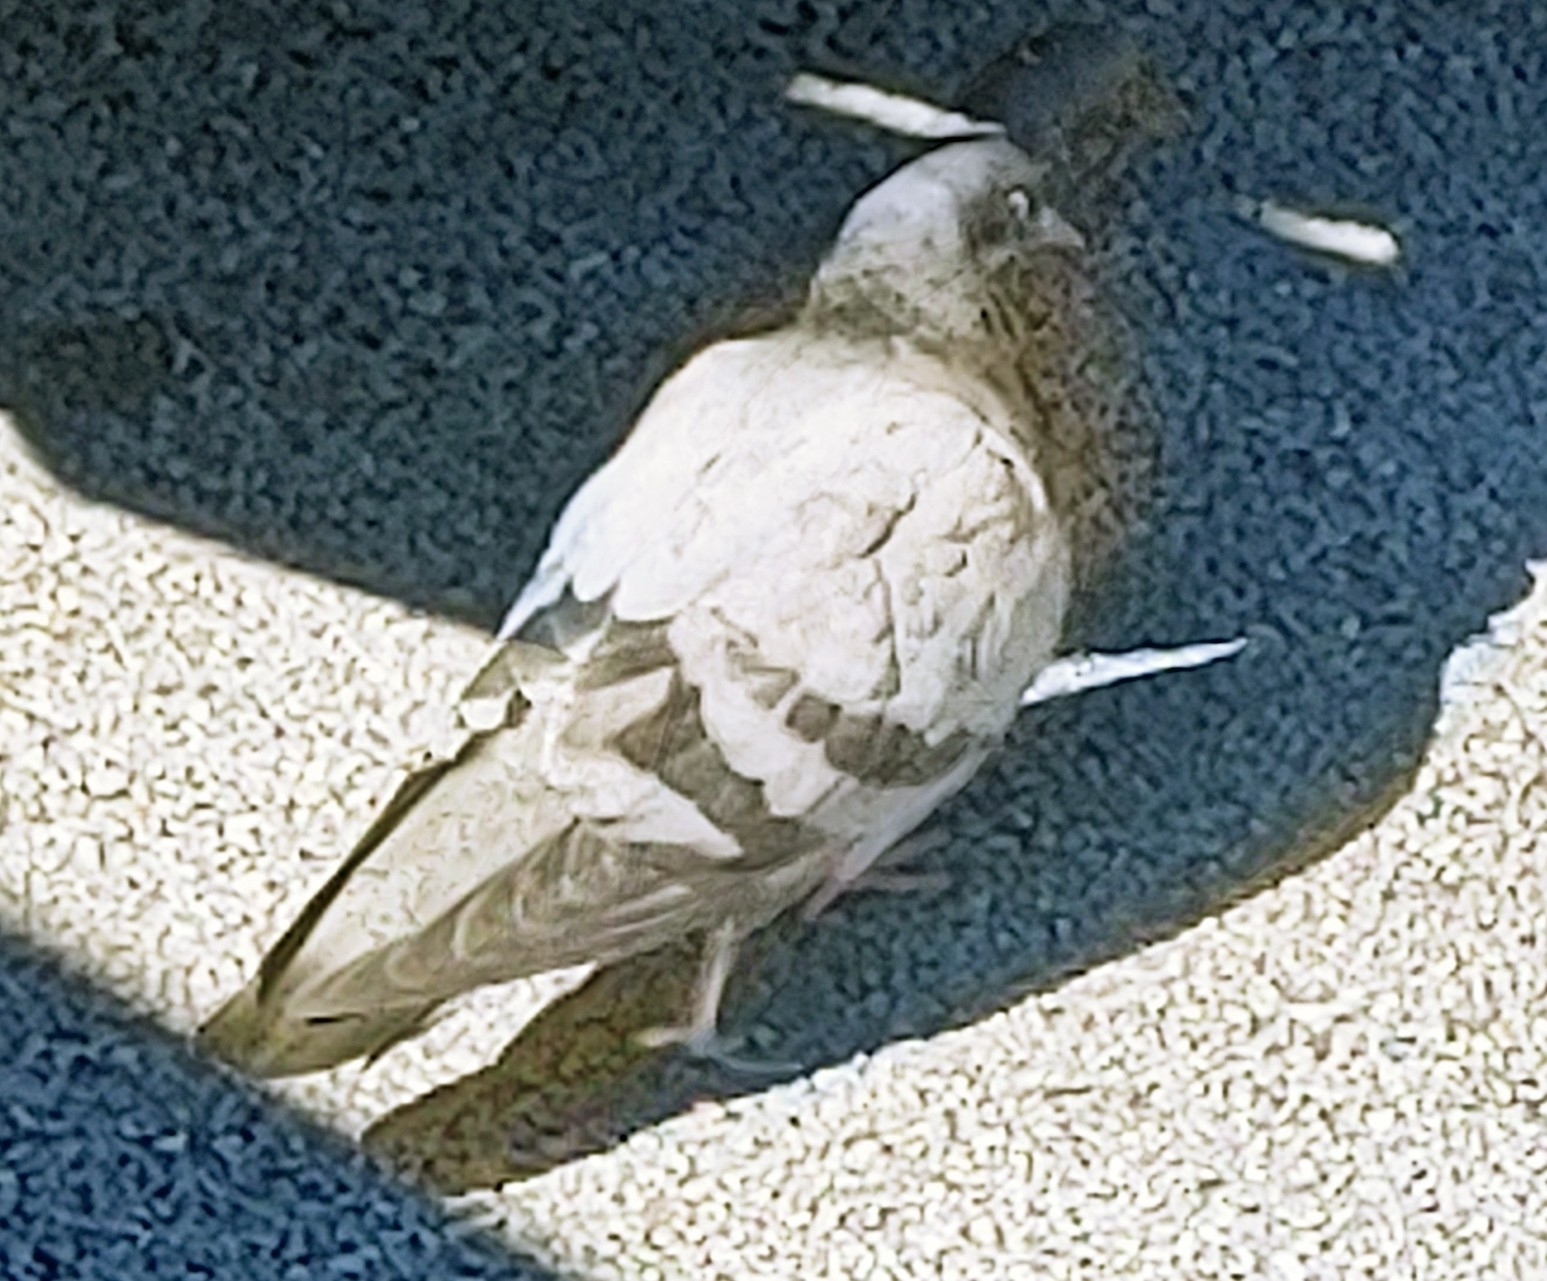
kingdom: Animalia
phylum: Chordata
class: Aves
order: Columbiformes
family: Columbidae
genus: Columba
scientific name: Columba livia
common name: Rock pigeon
